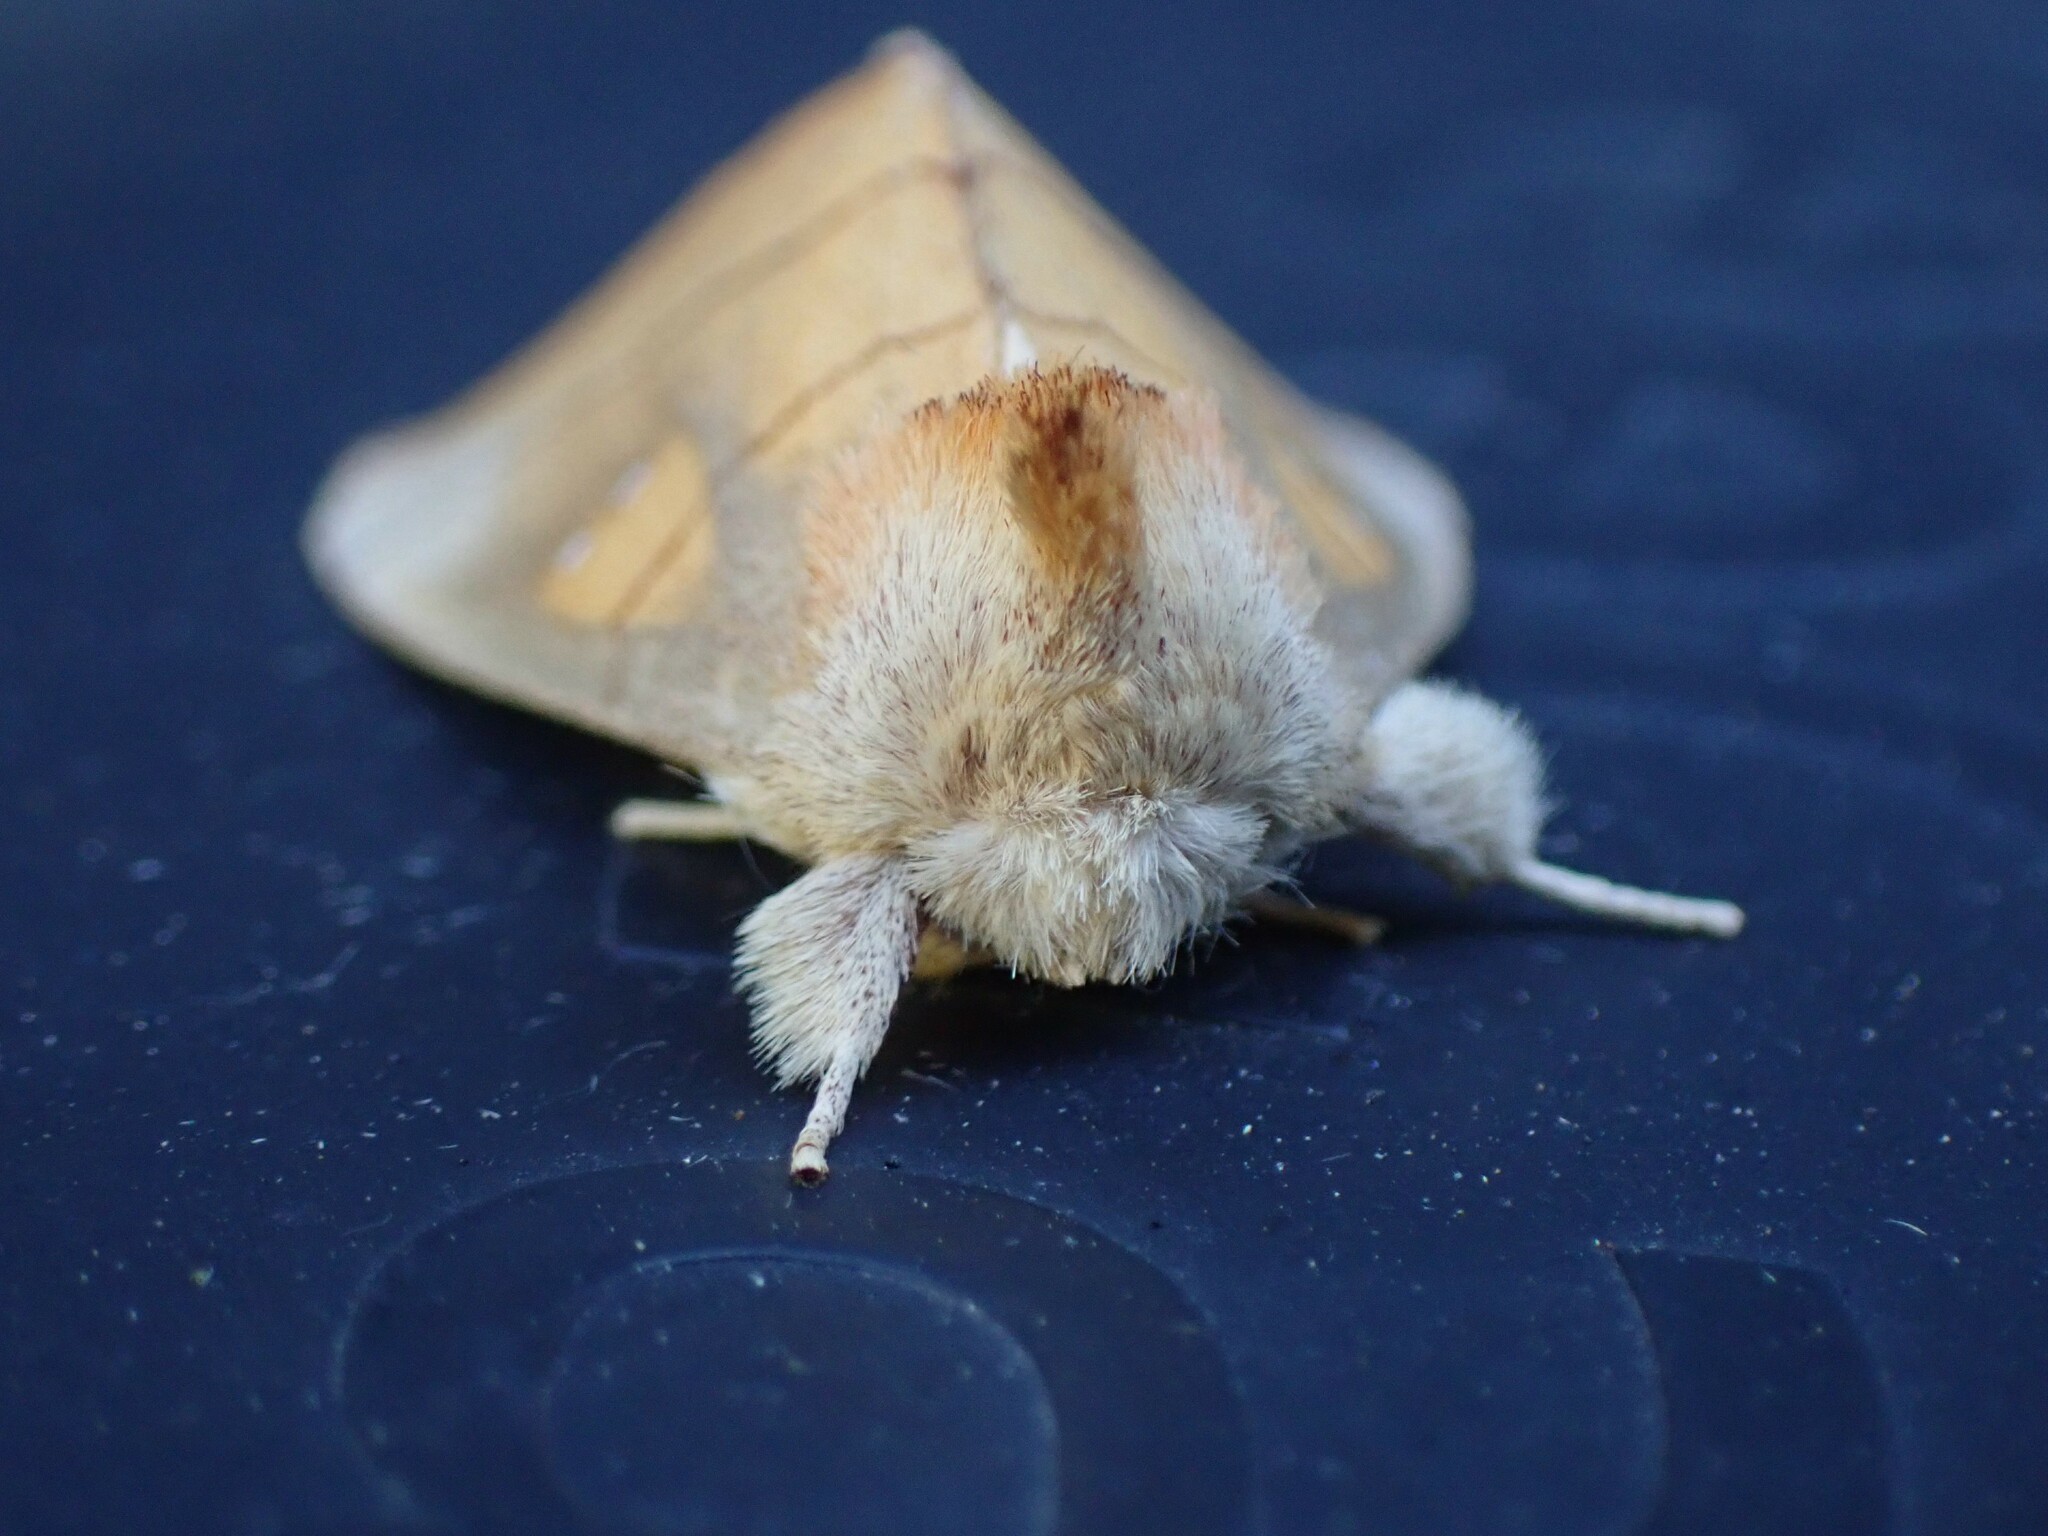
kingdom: Animalia
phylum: Arthropoda
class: Insecta
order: Lepidoptera
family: Notodontidae
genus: Nadata
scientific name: Nadata gibbosa
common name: White-dotted prominent
